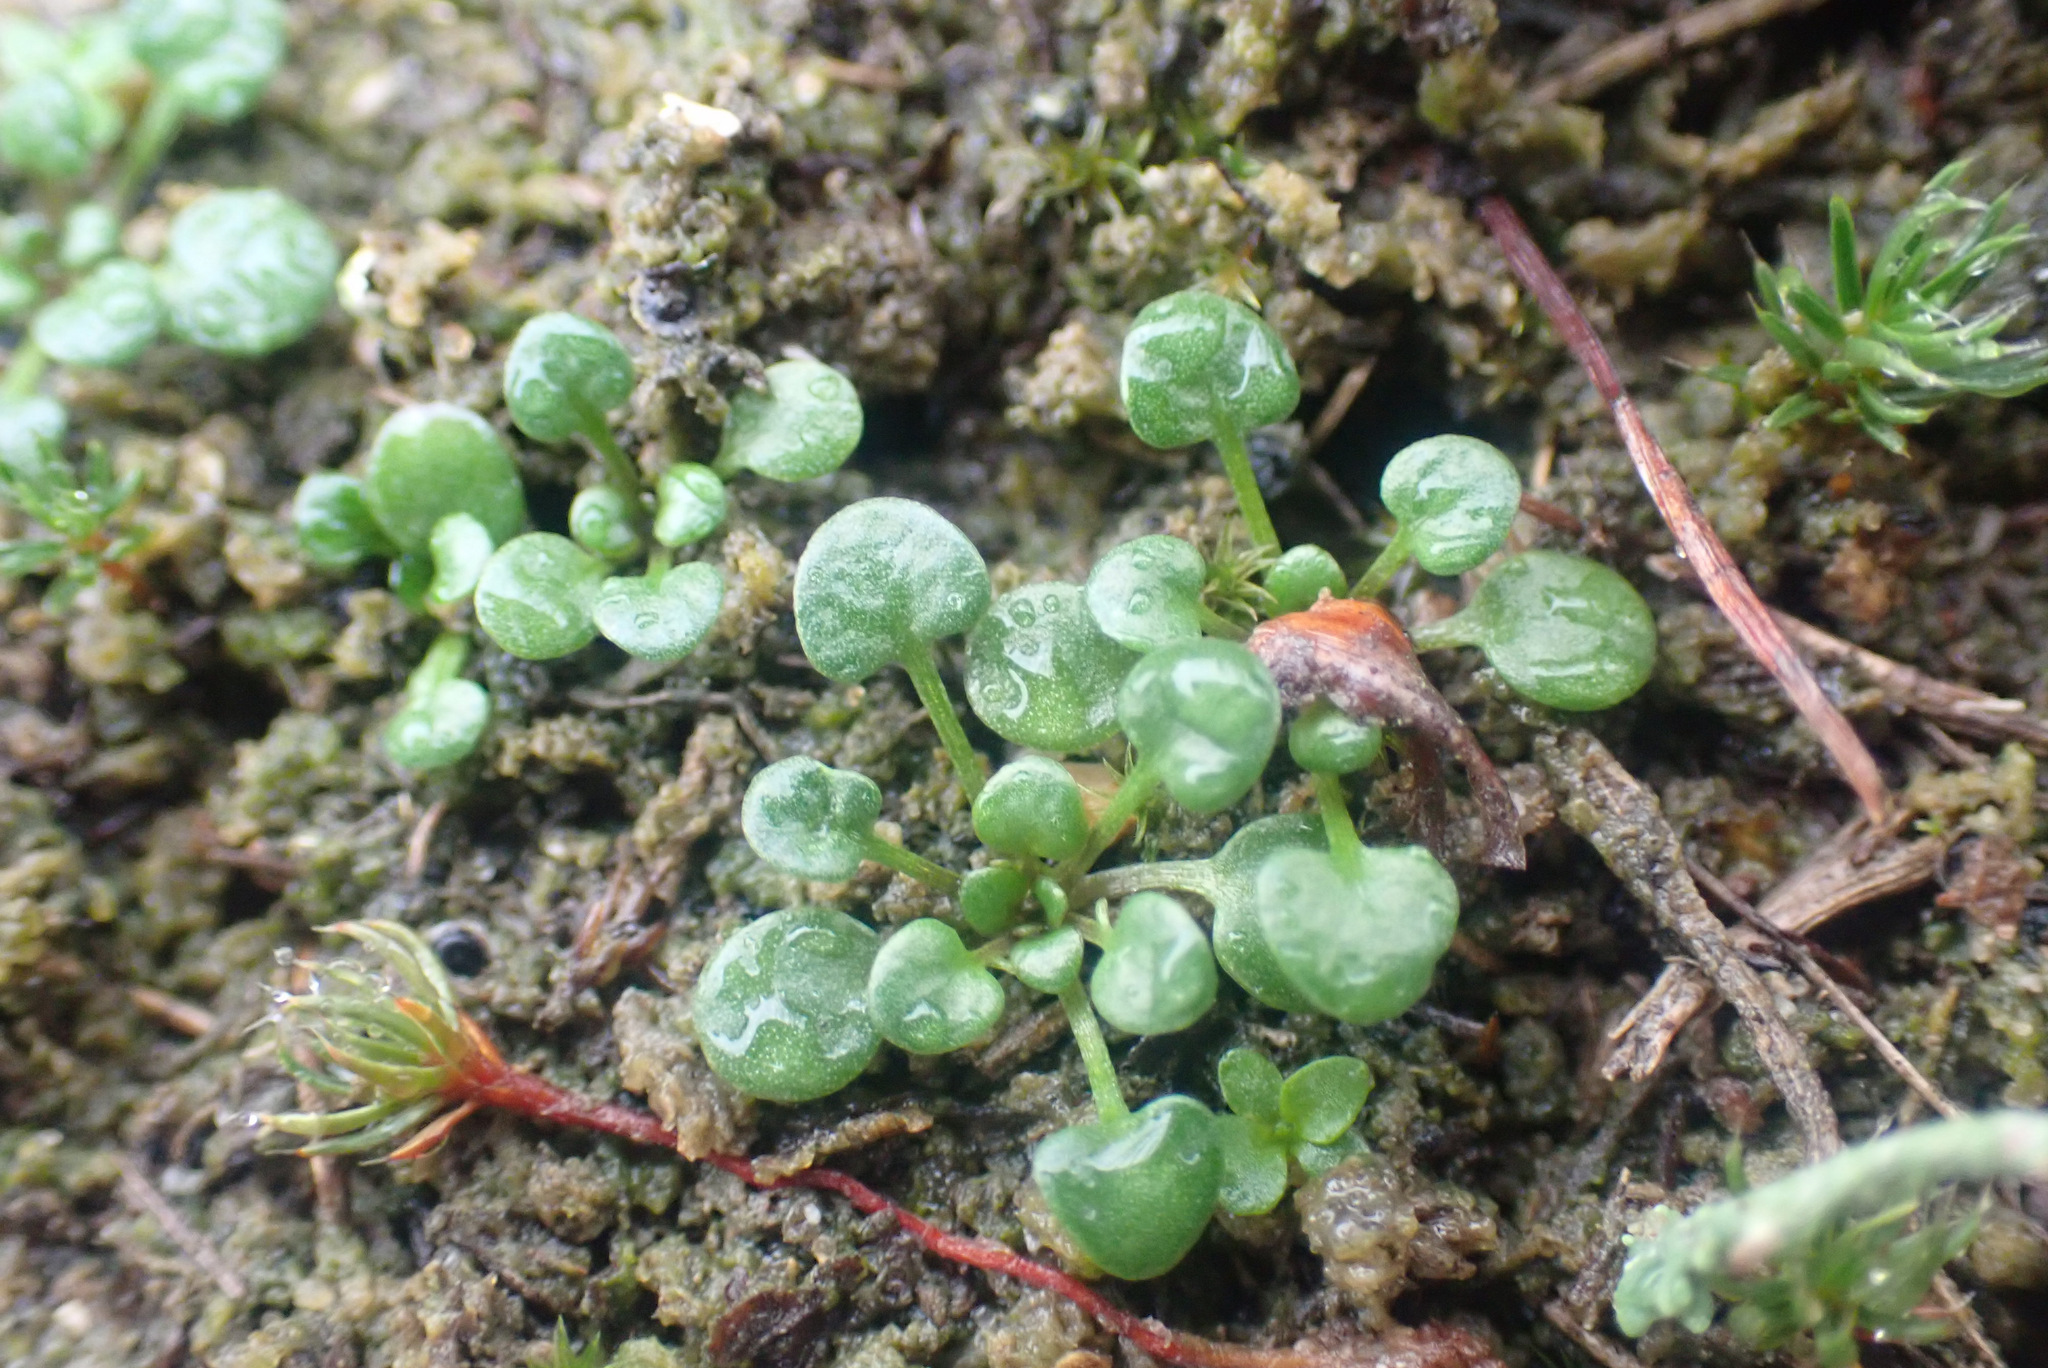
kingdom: Plantae
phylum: Tracheophyta
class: Magnoliopsida
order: Brassicales
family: Brassicaceae
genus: Teesdalia
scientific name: Teesdalia nudicaulis
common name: Shepherd's cress
